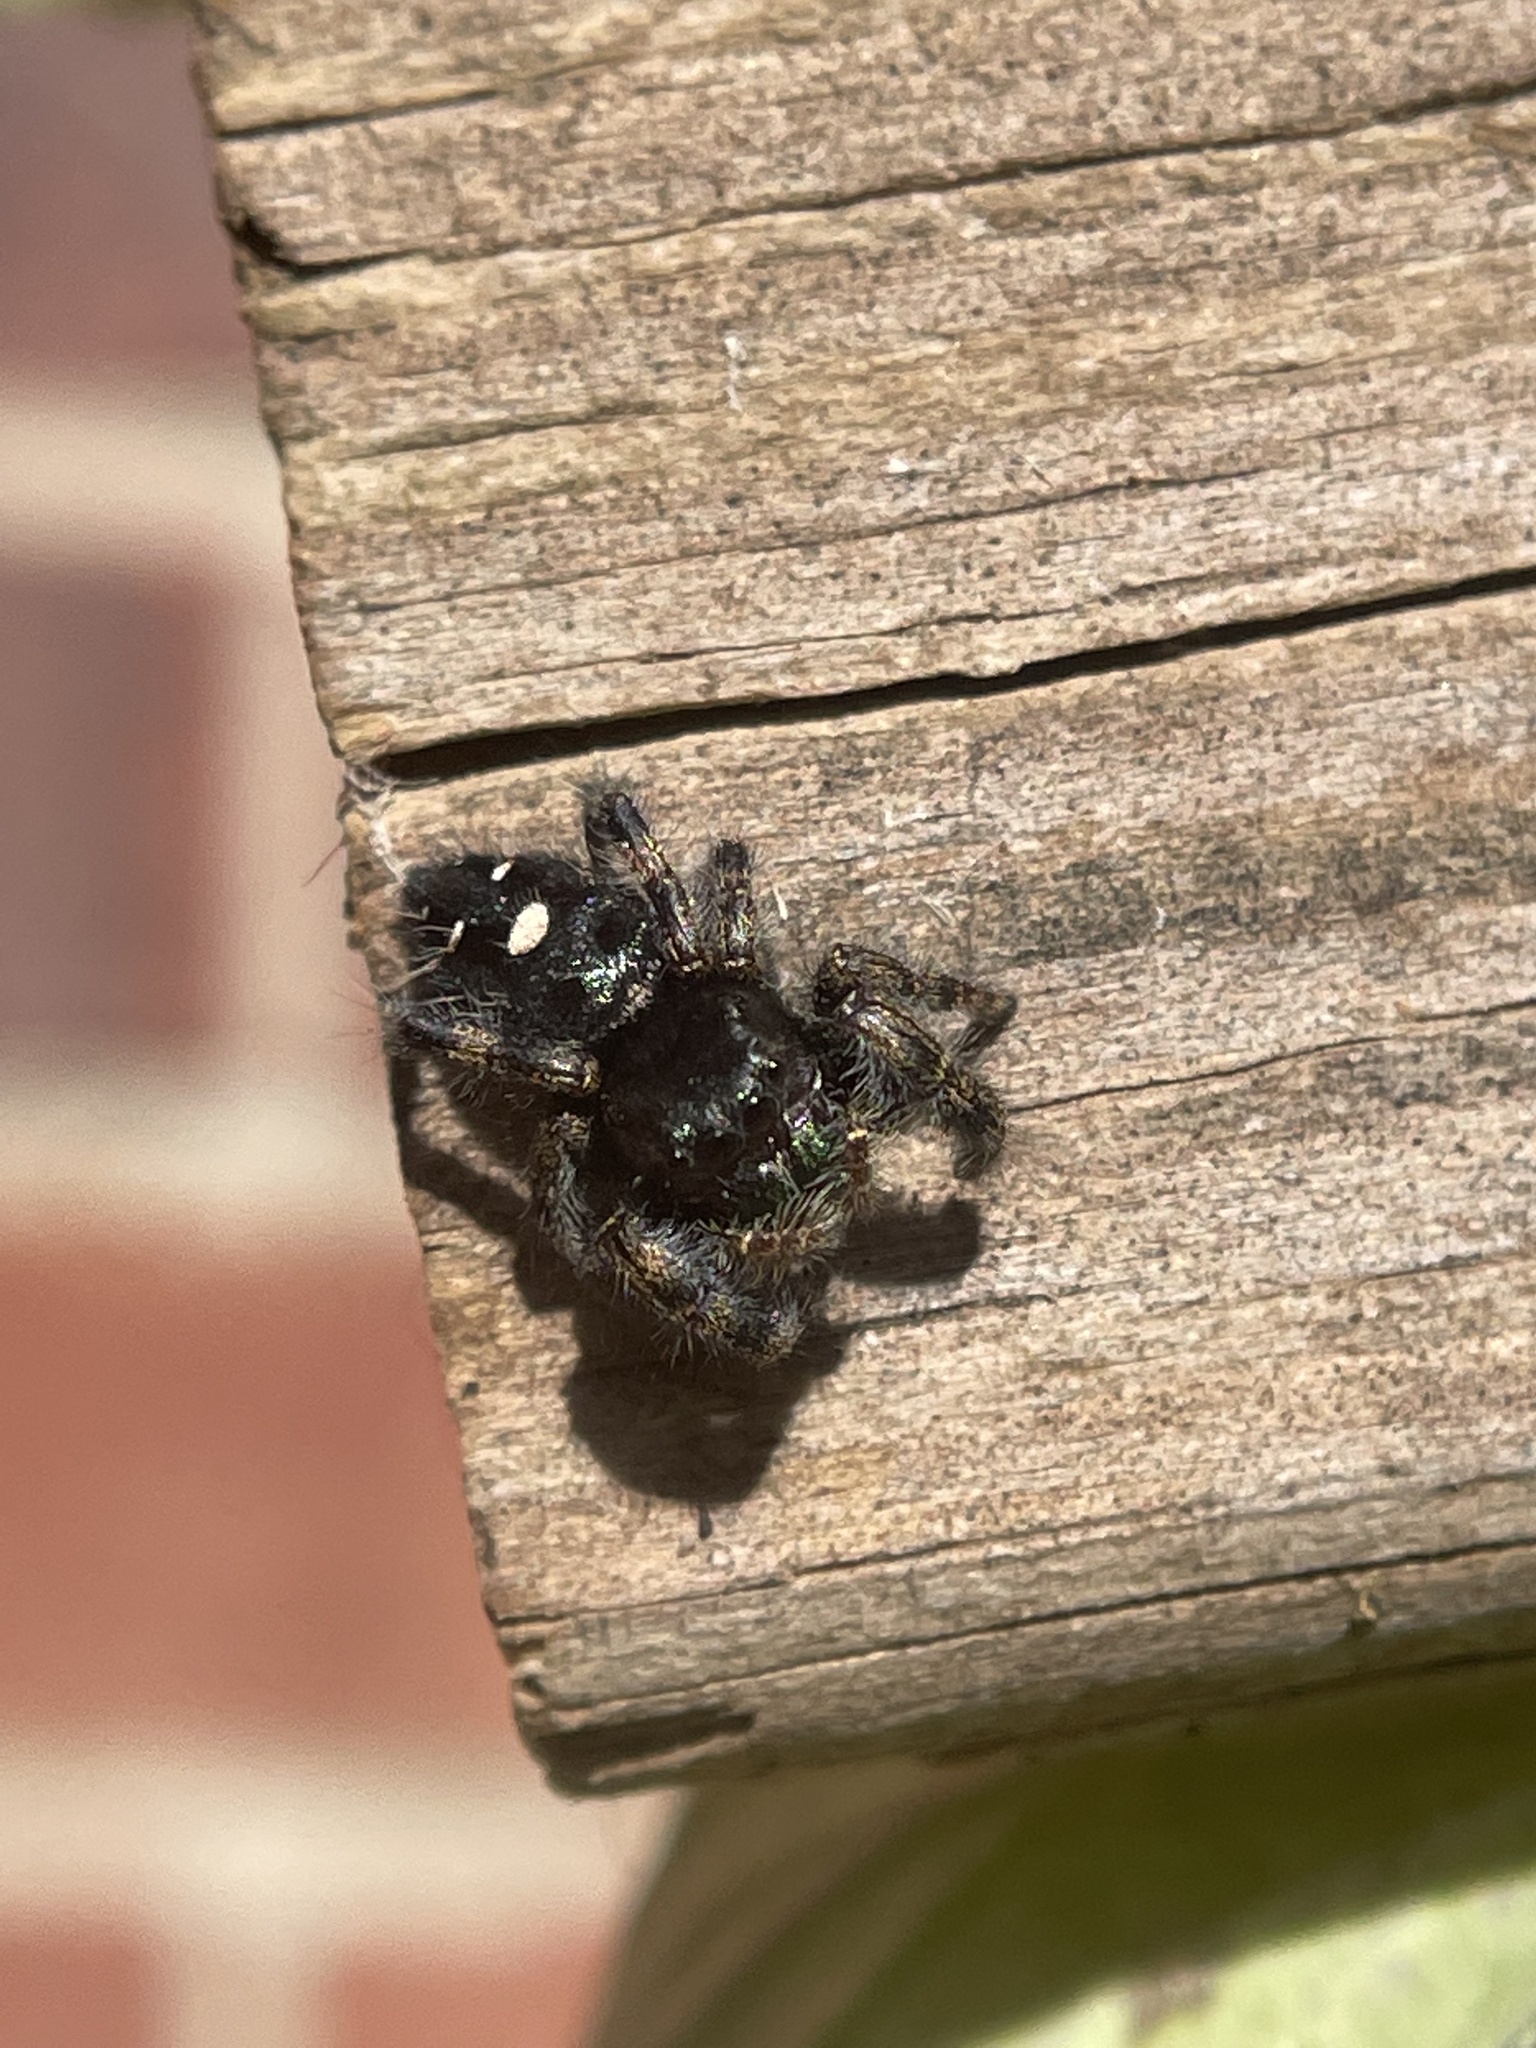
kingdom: Animalia
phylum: Arthropoda
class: Arachnida
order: Araneae
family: Salticidae
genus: Phidippus
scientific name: Phidippus audax
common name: Bold jumper
